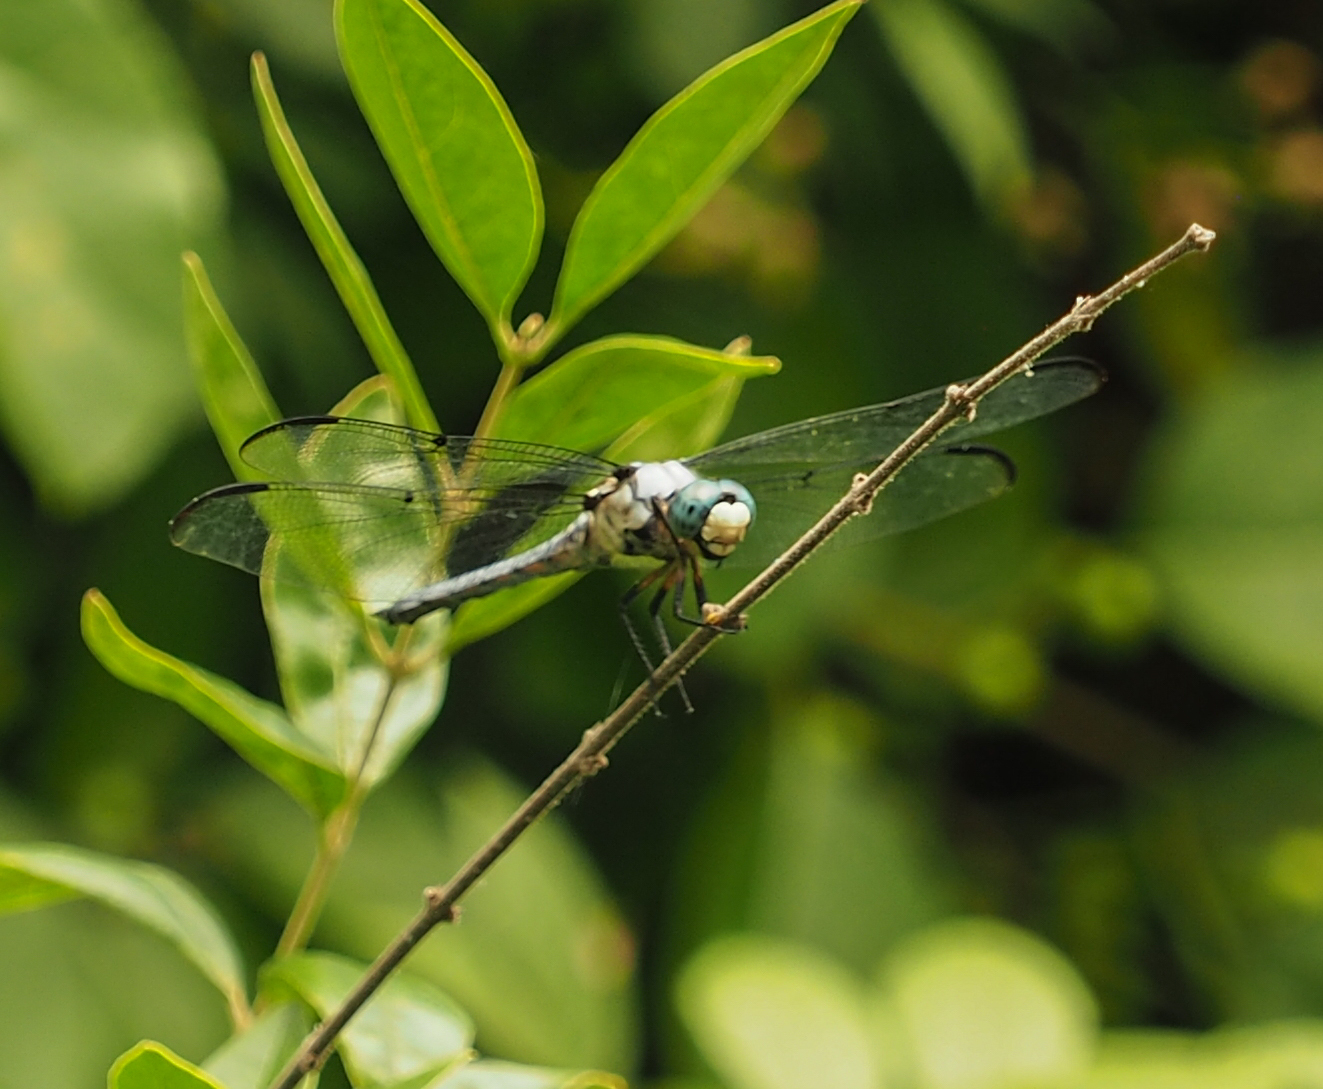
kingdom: Animalia
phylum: Arthropoda
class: Insecta
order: Odonata
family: Libellulidae
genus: Libellula
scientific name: Libellula vibrans
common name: Great blue skimmer
